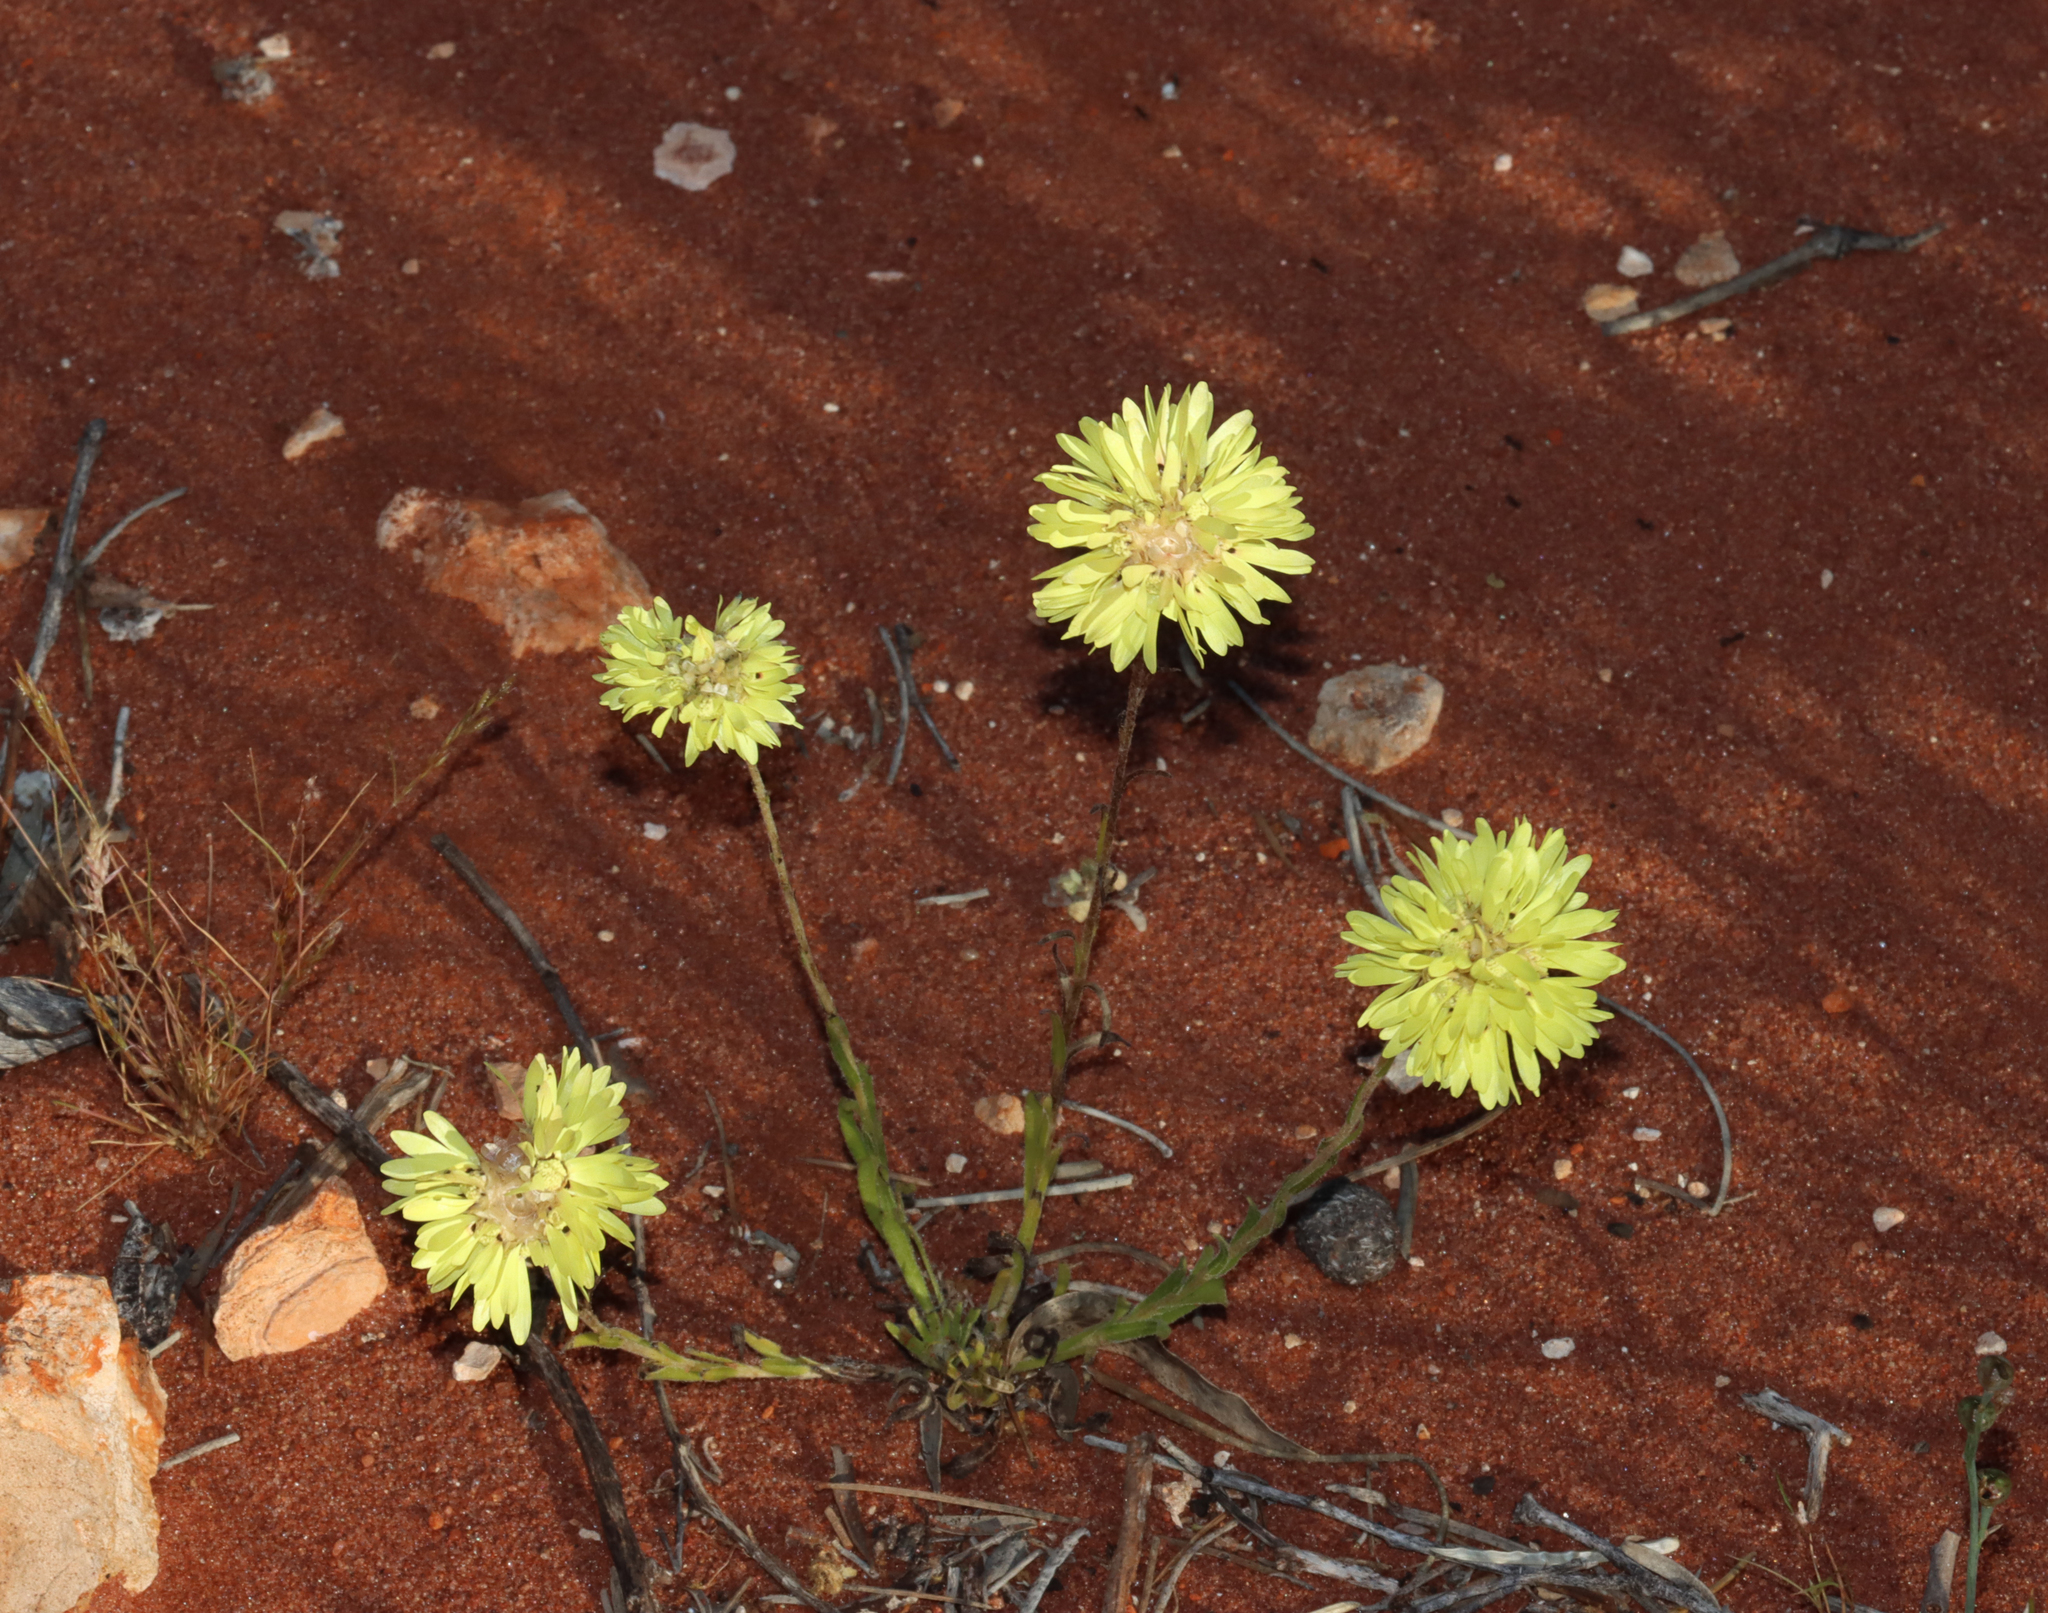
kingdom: Plantae
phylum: Tracheophyta
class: Magnoliopsida
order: Asterales
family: Asteraceae
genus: Cephalipterum
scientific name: Cephalipterum drummondii
